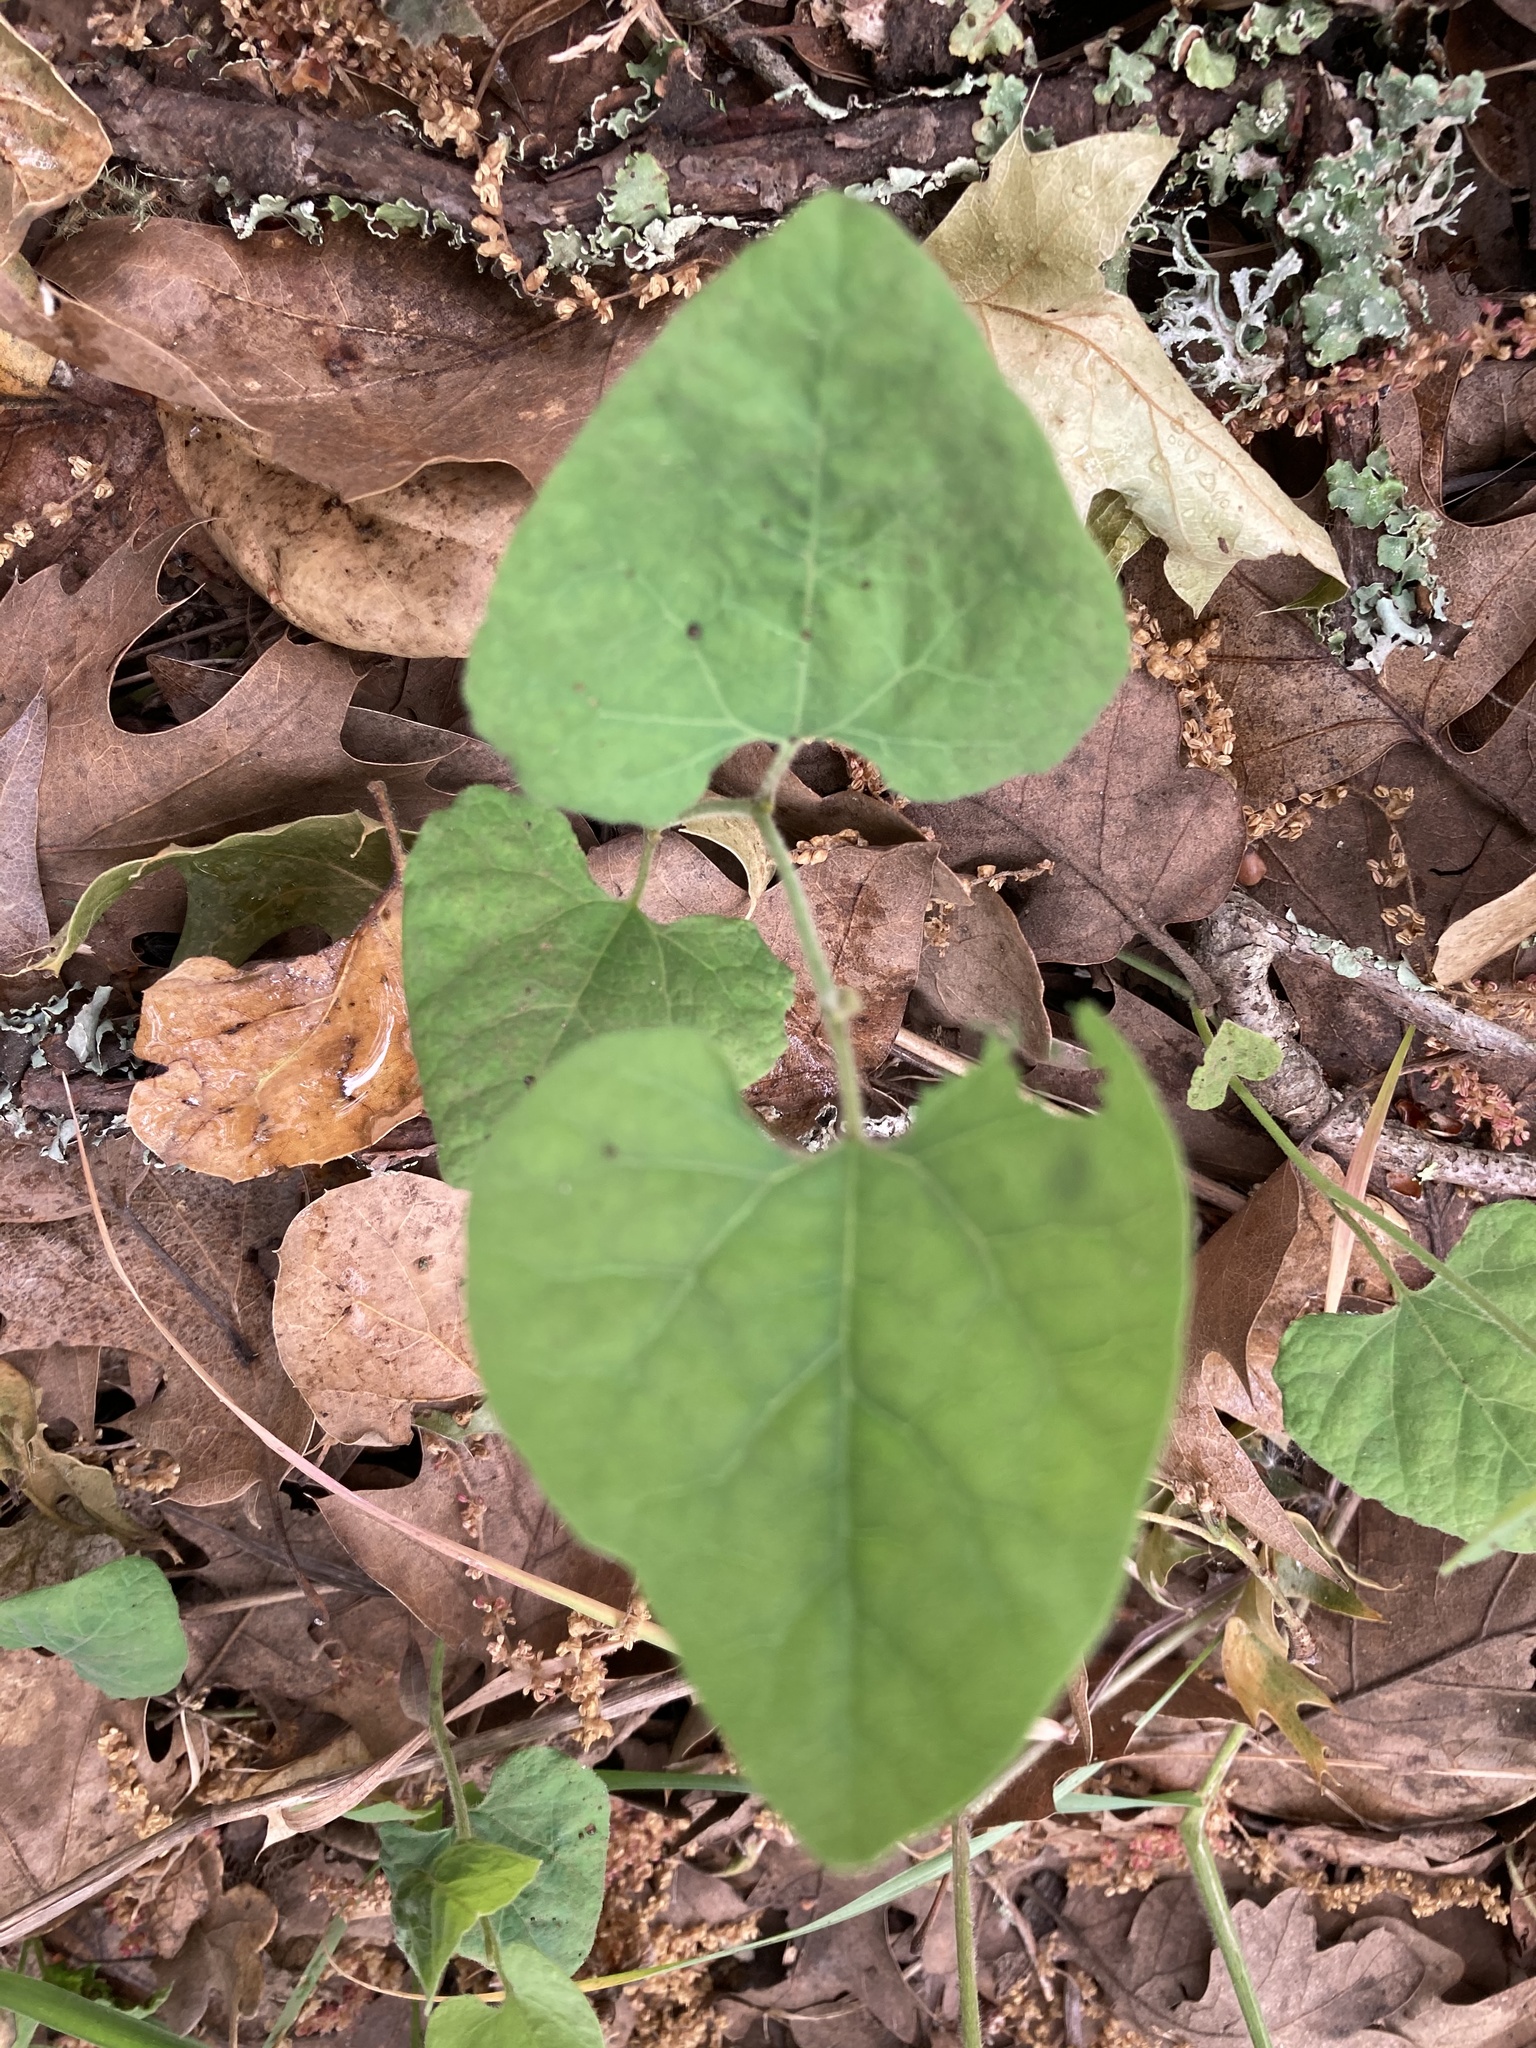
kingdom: Animalia
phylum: Arthropoda
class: Insecta
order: Lepidoptera
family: Papilionidae
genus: Battus
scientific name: Battus philenor
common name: Pipevine swallowtail
